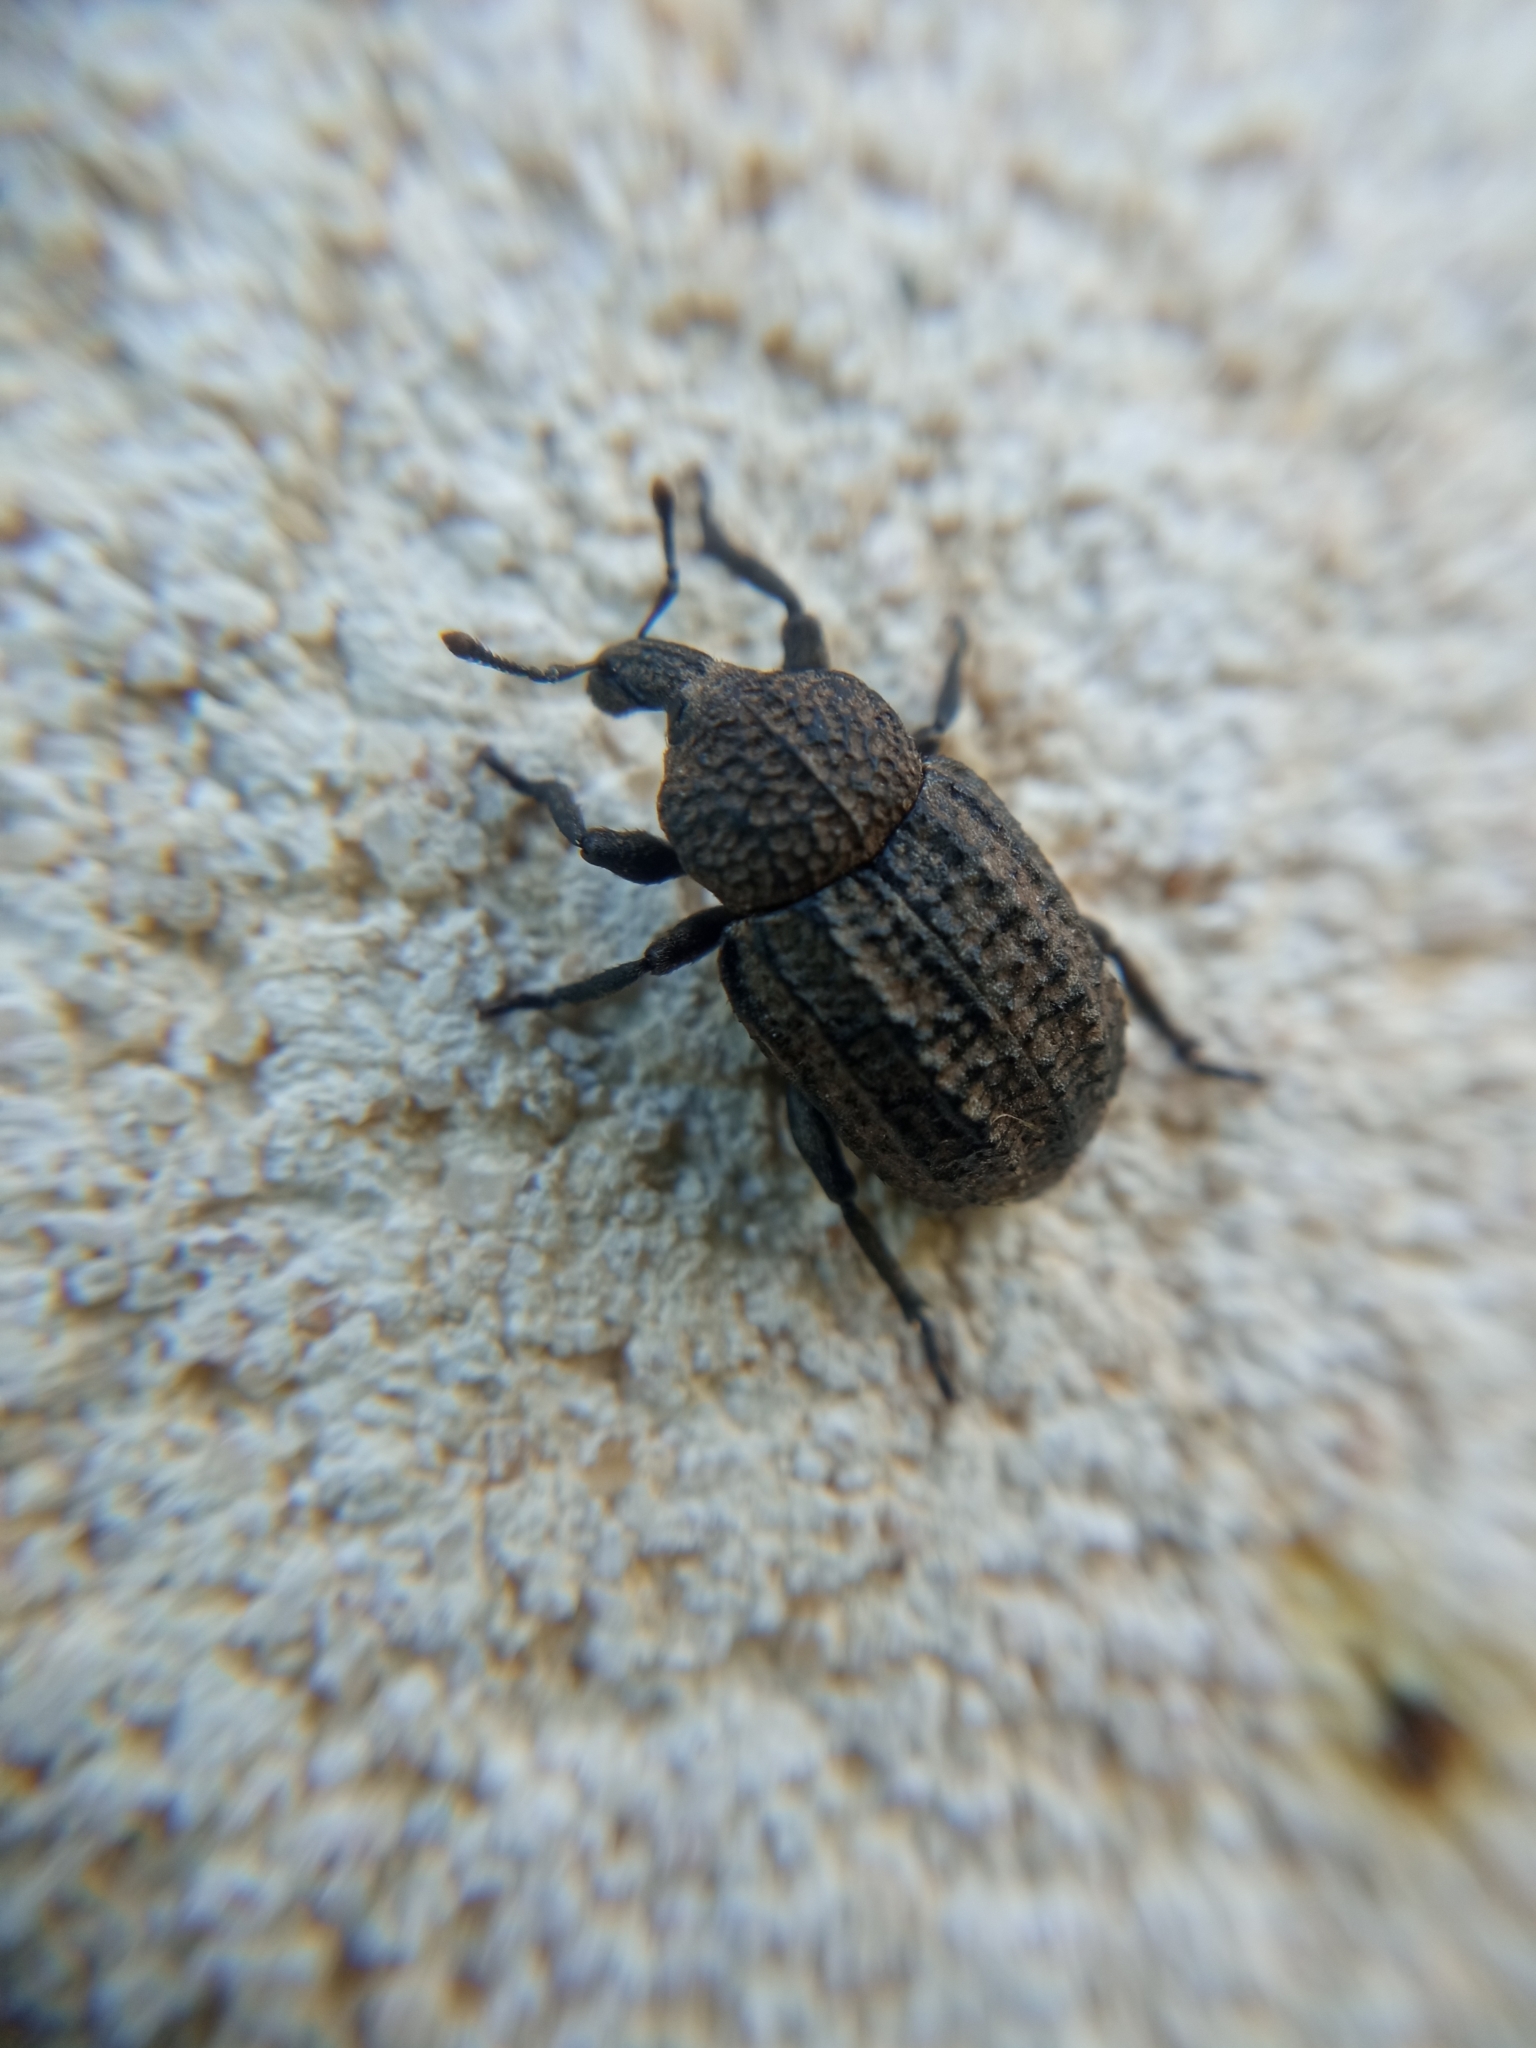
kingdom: Animalia
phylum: Arthropoda
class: Insecta
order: Coleoptera
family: Curculionidae
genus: Minyops
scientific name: Minyops carinatus
